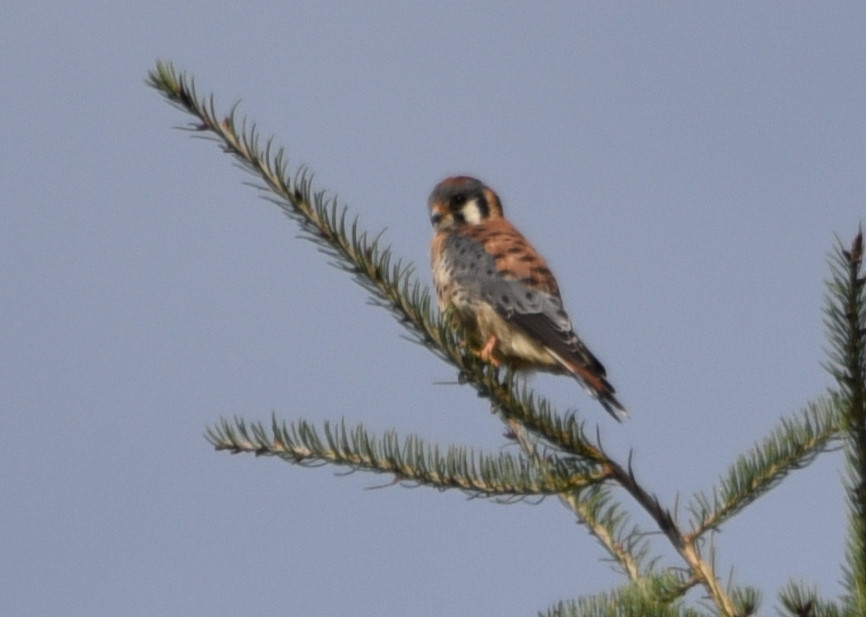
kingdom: Animalia
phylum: Chordata
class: Aves
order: Falconiformes
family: Falconidae
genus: Falco
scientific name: Falco sparverius
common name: American kestrel
